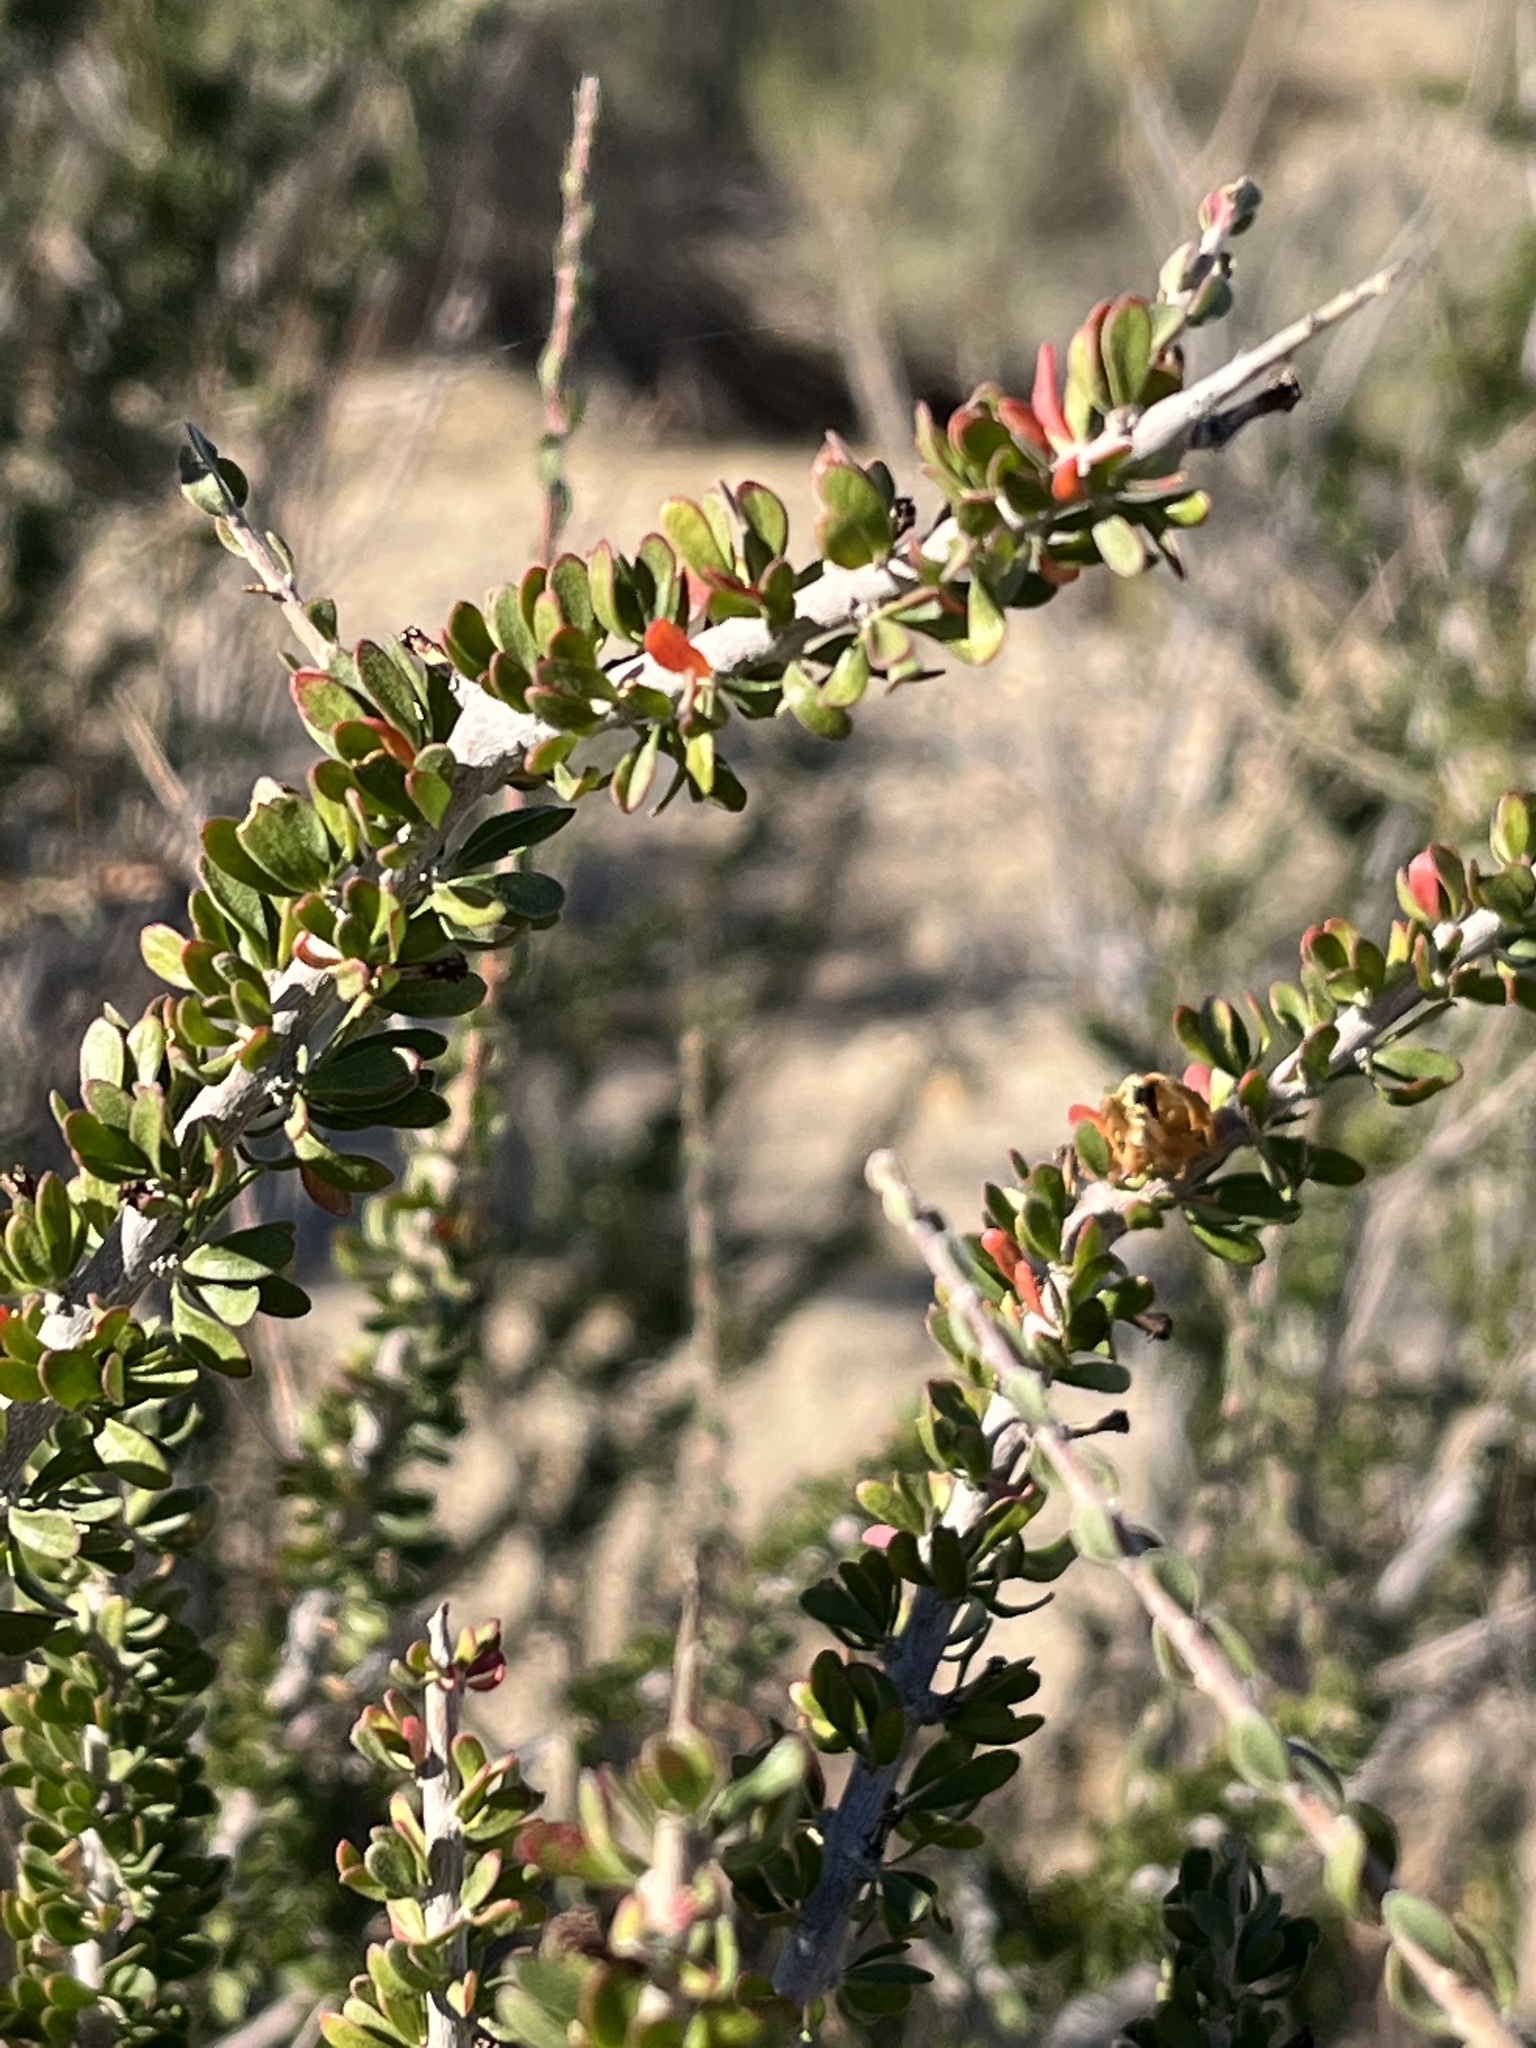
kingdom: Plantae
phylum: Tracheophyta
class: Magnoliopsida
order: Malpighiales
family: Picrodendraceae
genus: Tetracoccus
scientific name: Tetracoccus hallii
